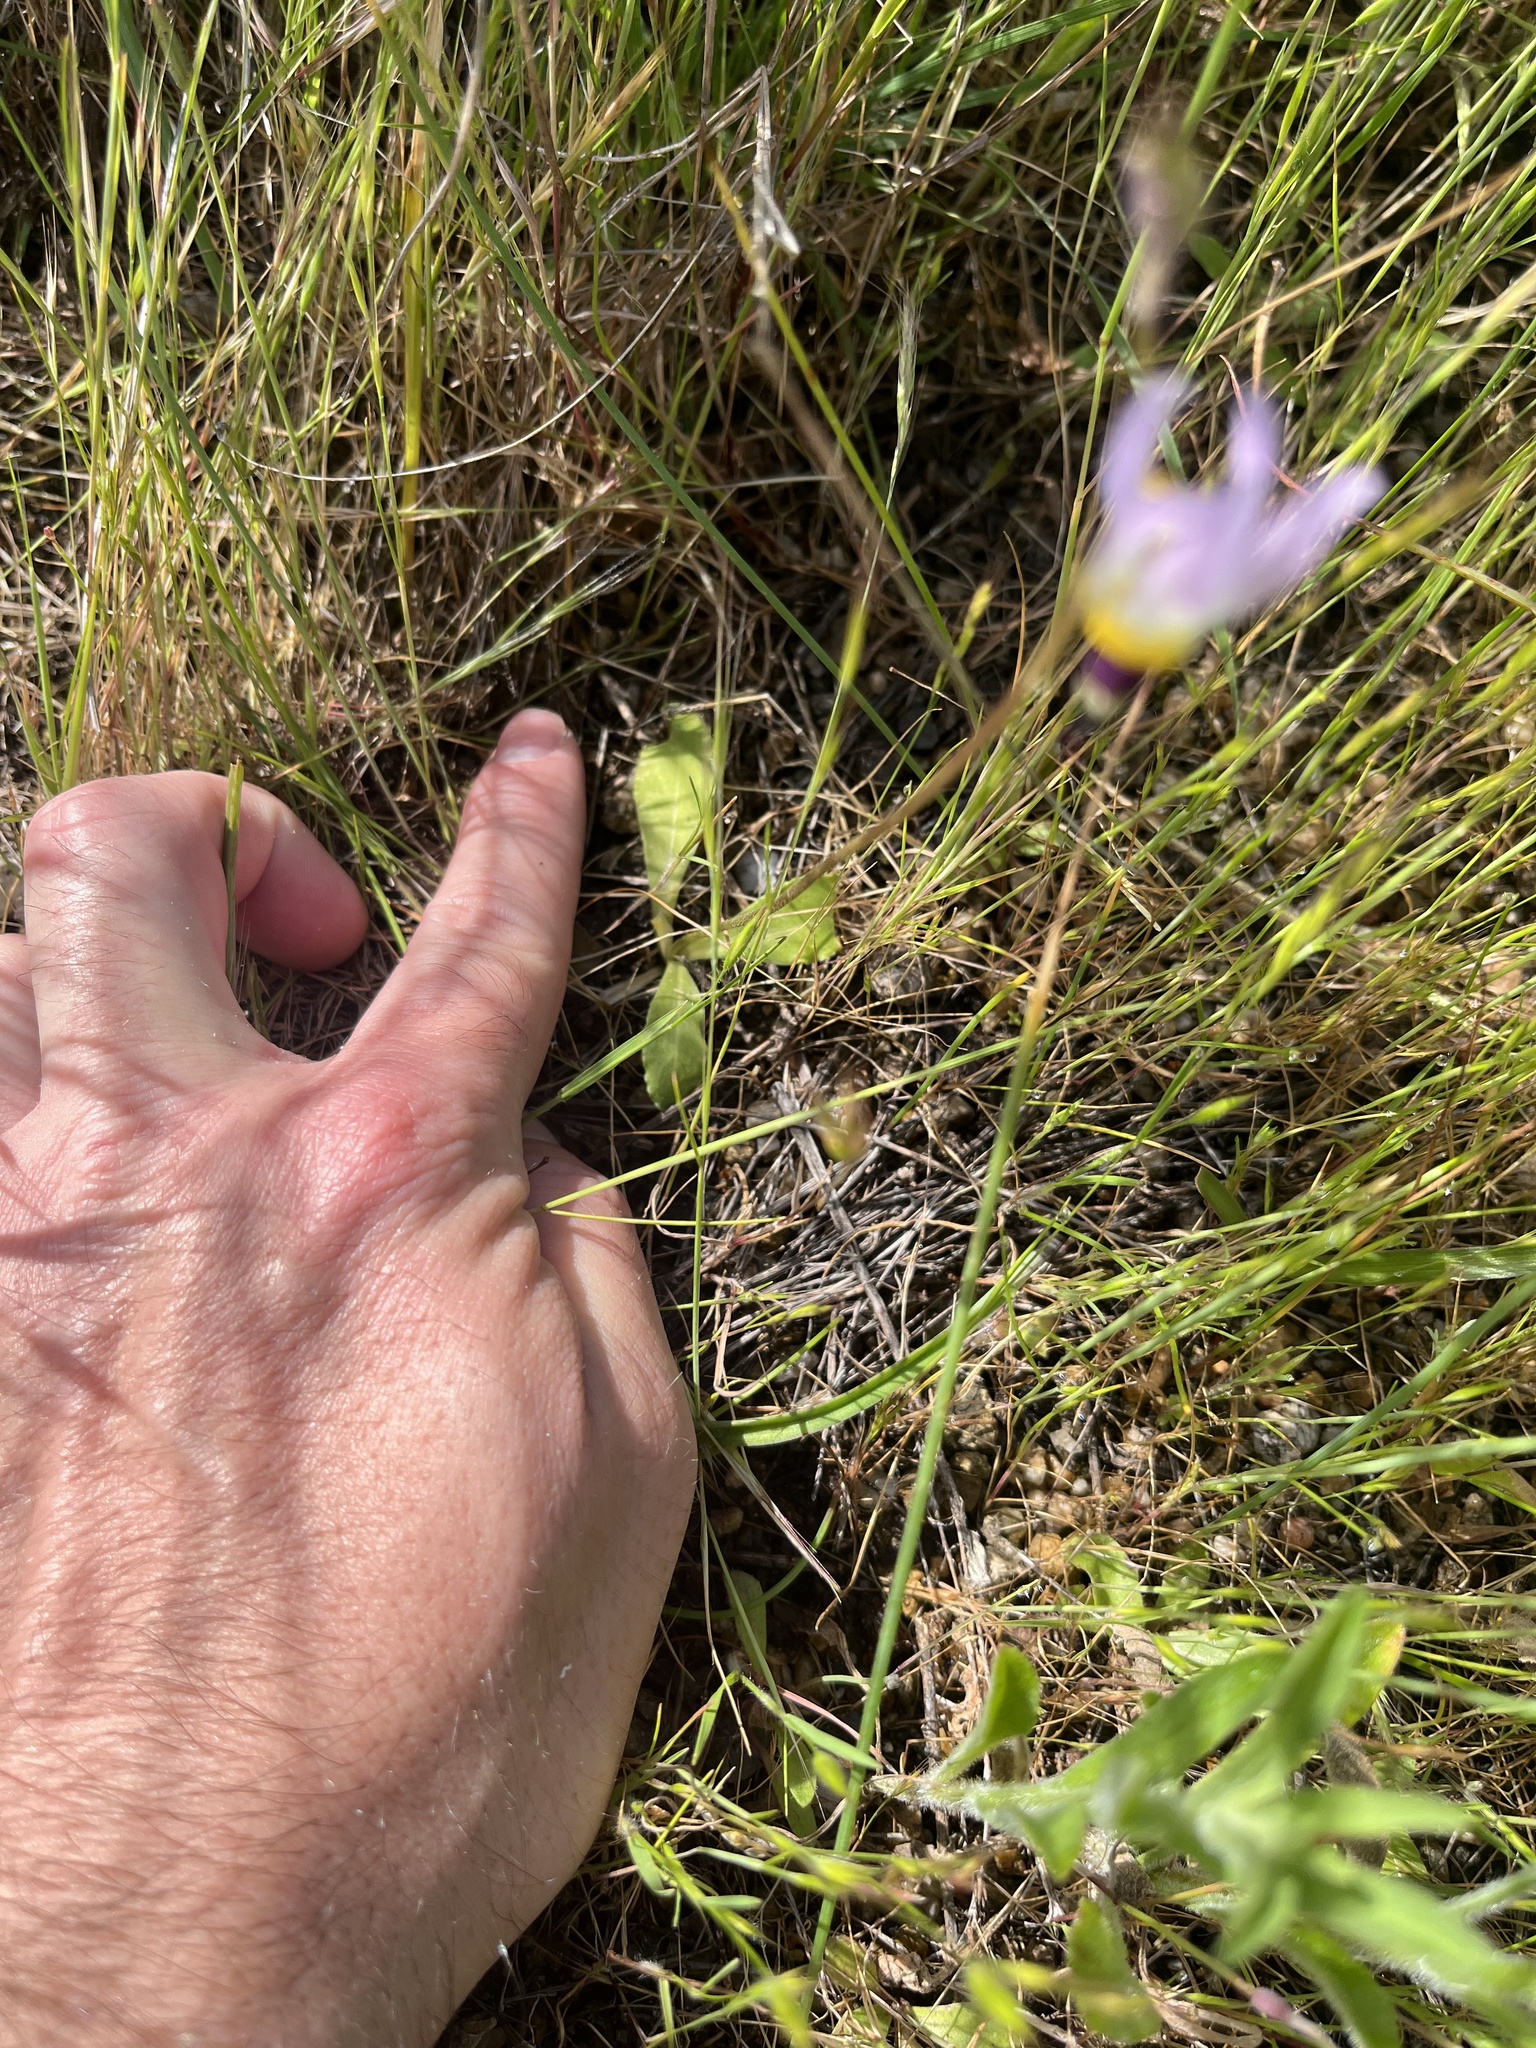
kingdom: Plantae
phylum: Tracheophyta
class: Magnoliopsida
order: Ericales
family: Primulaceae
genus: Dodecatheon
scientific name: Dodecatheon clevelandii
